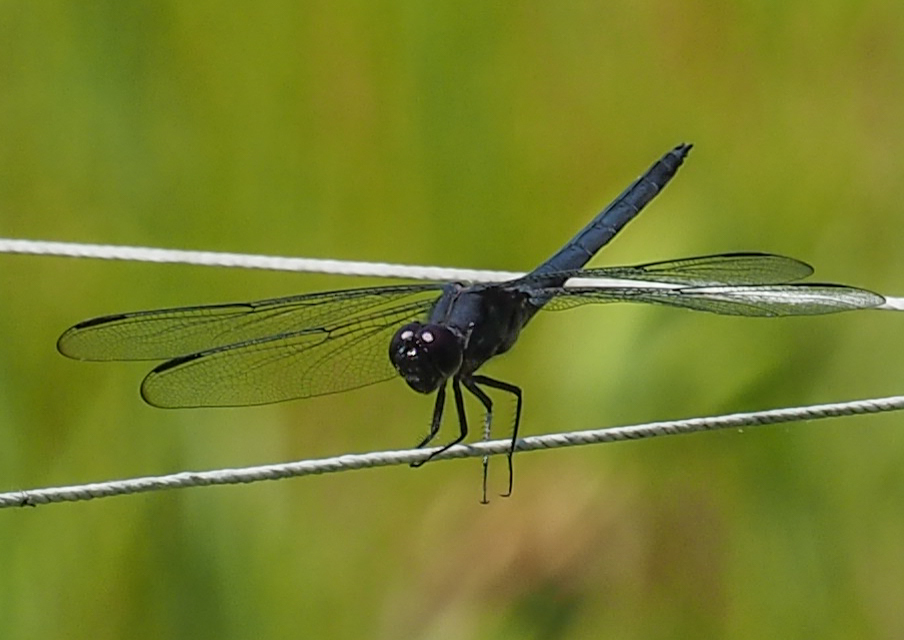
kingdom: Animalia
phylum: Arthropoda
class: Insecta
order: Odonata
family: Libellulidae
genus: Libellula
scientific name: Libellula incesta
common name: Slaty skimmer
